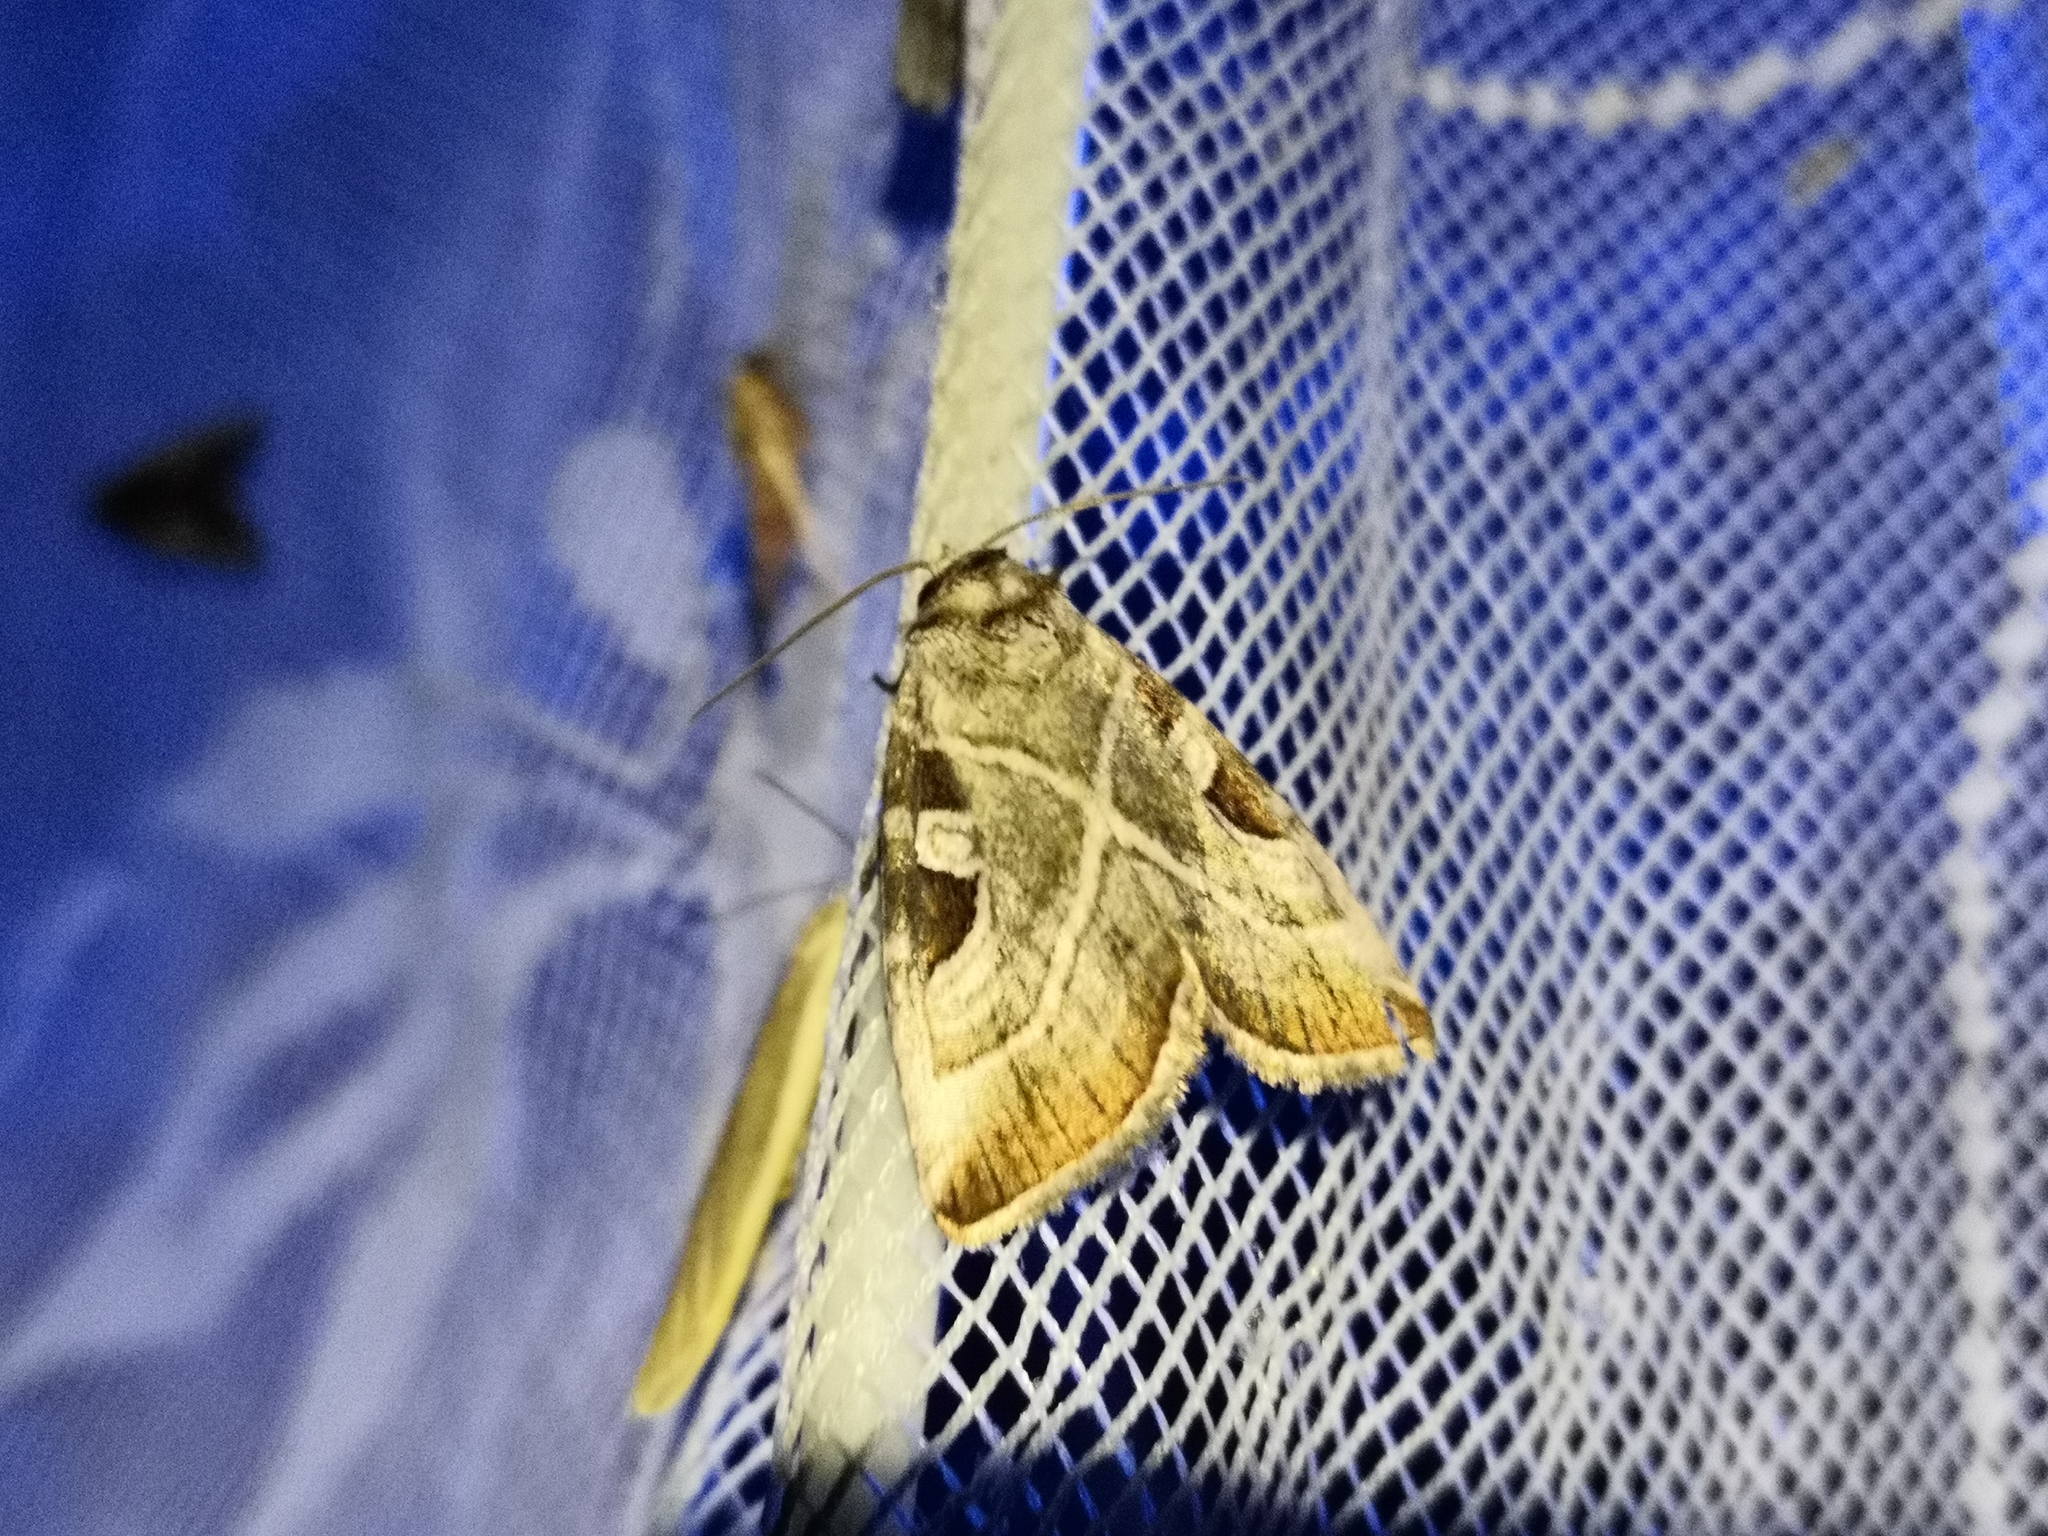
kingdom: Animalia
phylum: Arthropoda
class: Insecta
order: Lepidoptera
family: Noctuidae
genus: Eucarta
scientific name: Eucarta virgo
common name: Silvery gem
